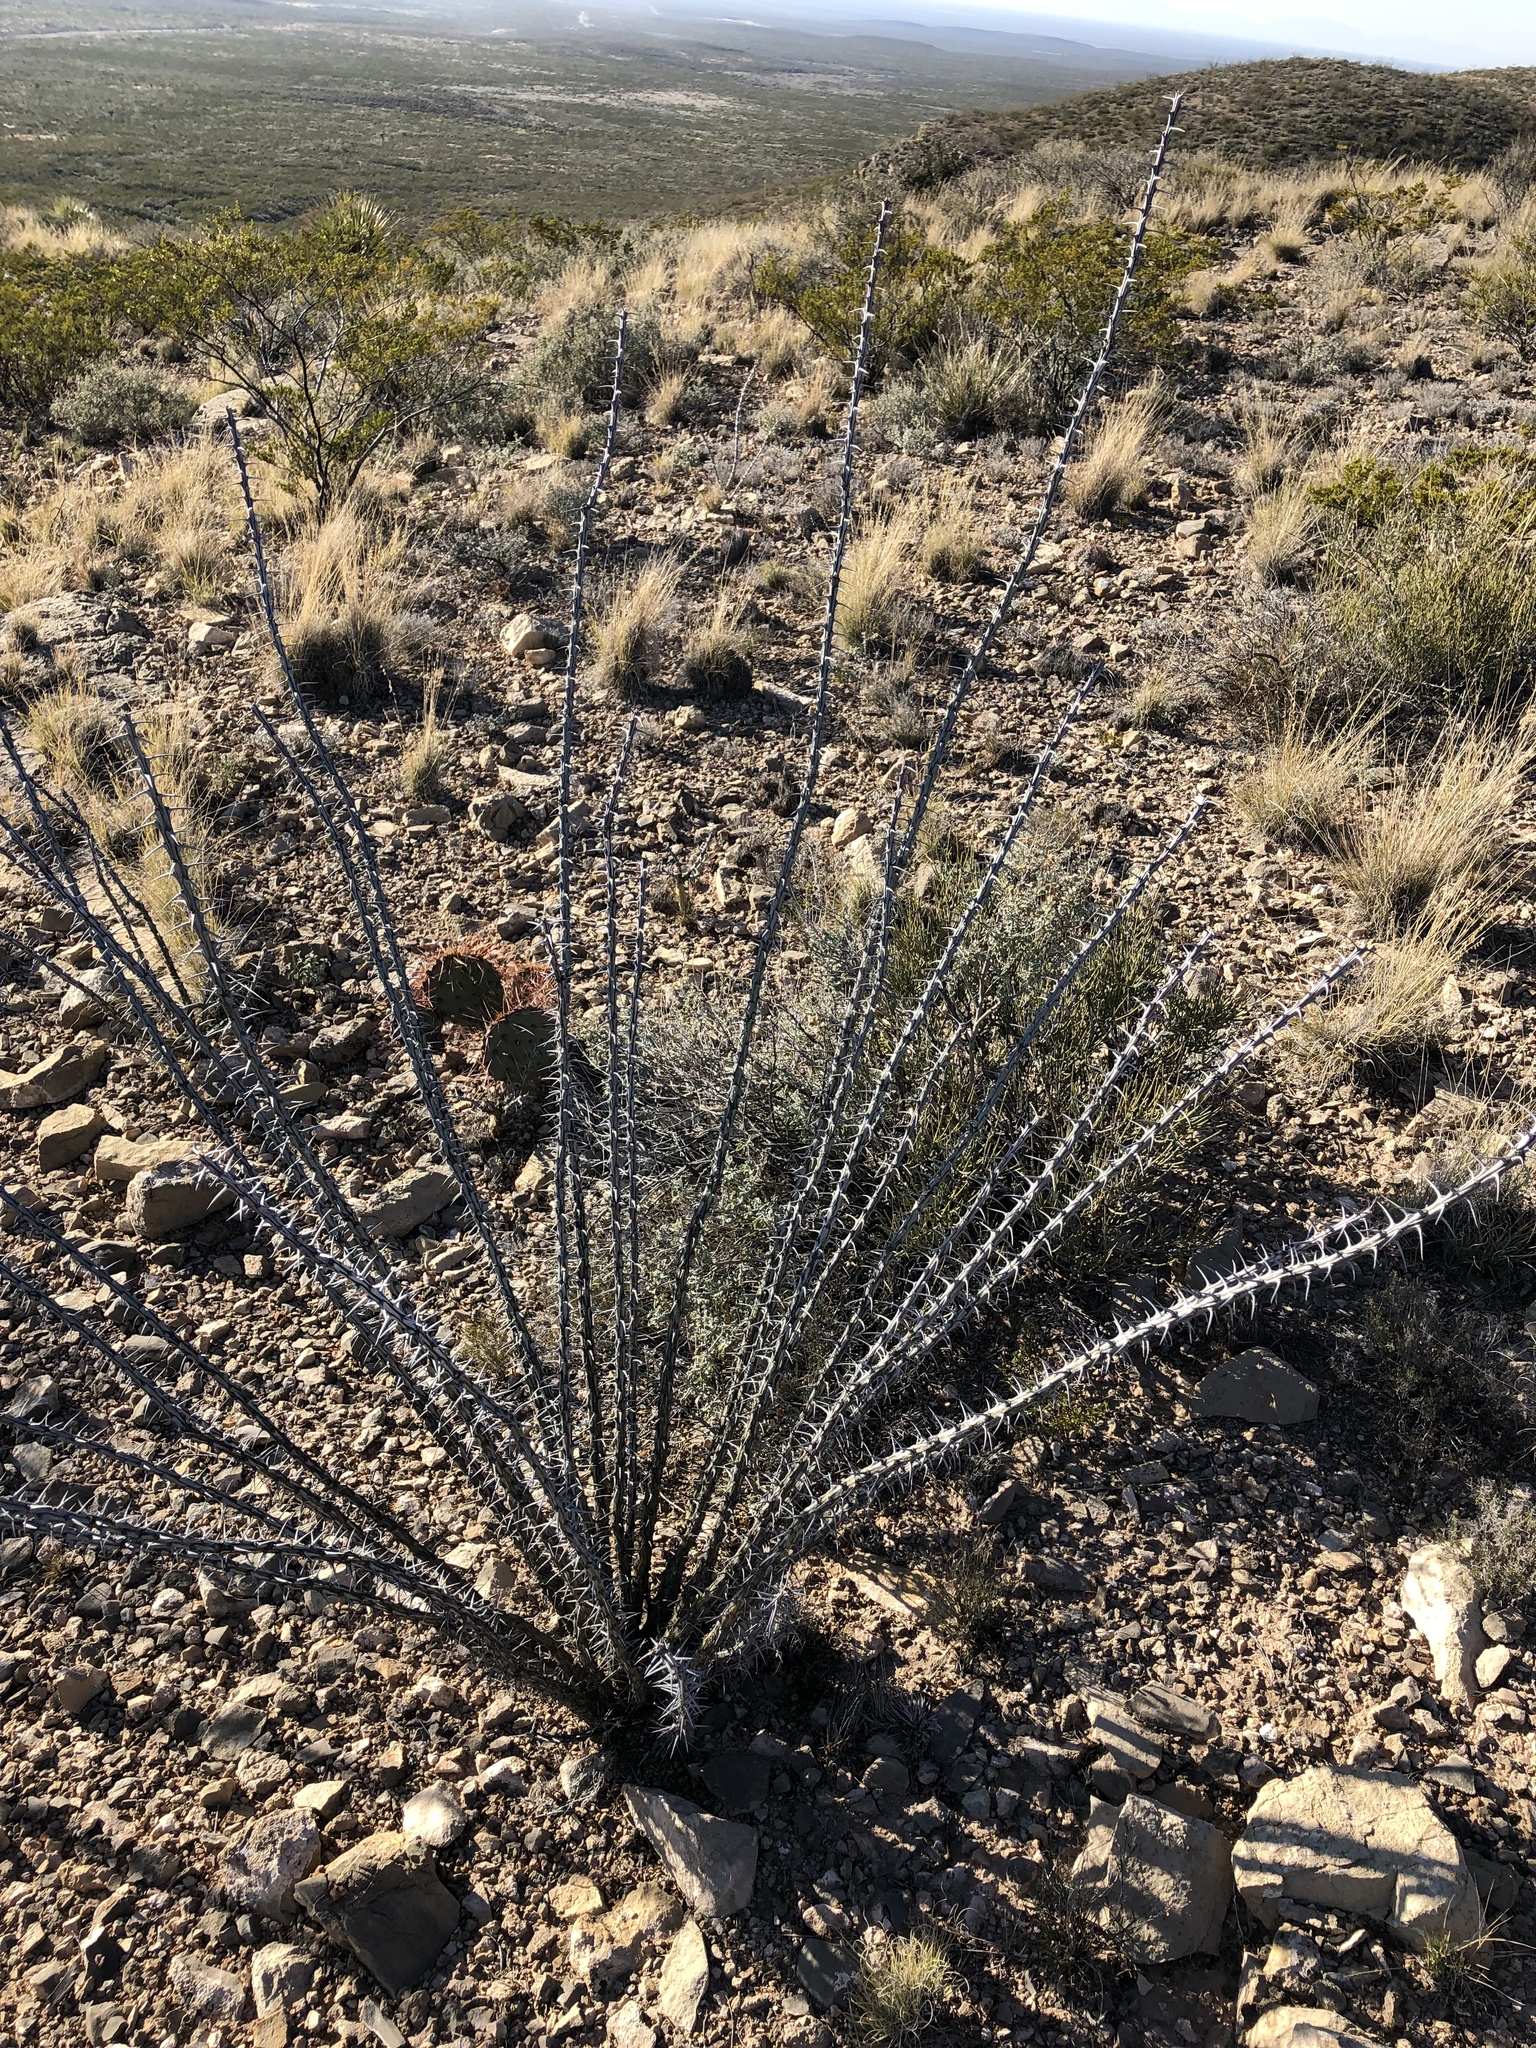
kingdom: Plantae
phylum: Tracheophyta
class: Magnoliopsida
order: Ericales
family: Fouquieriaceae
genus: Fouquieria
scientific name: Fouquieria splendens
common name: Vine-cactus
